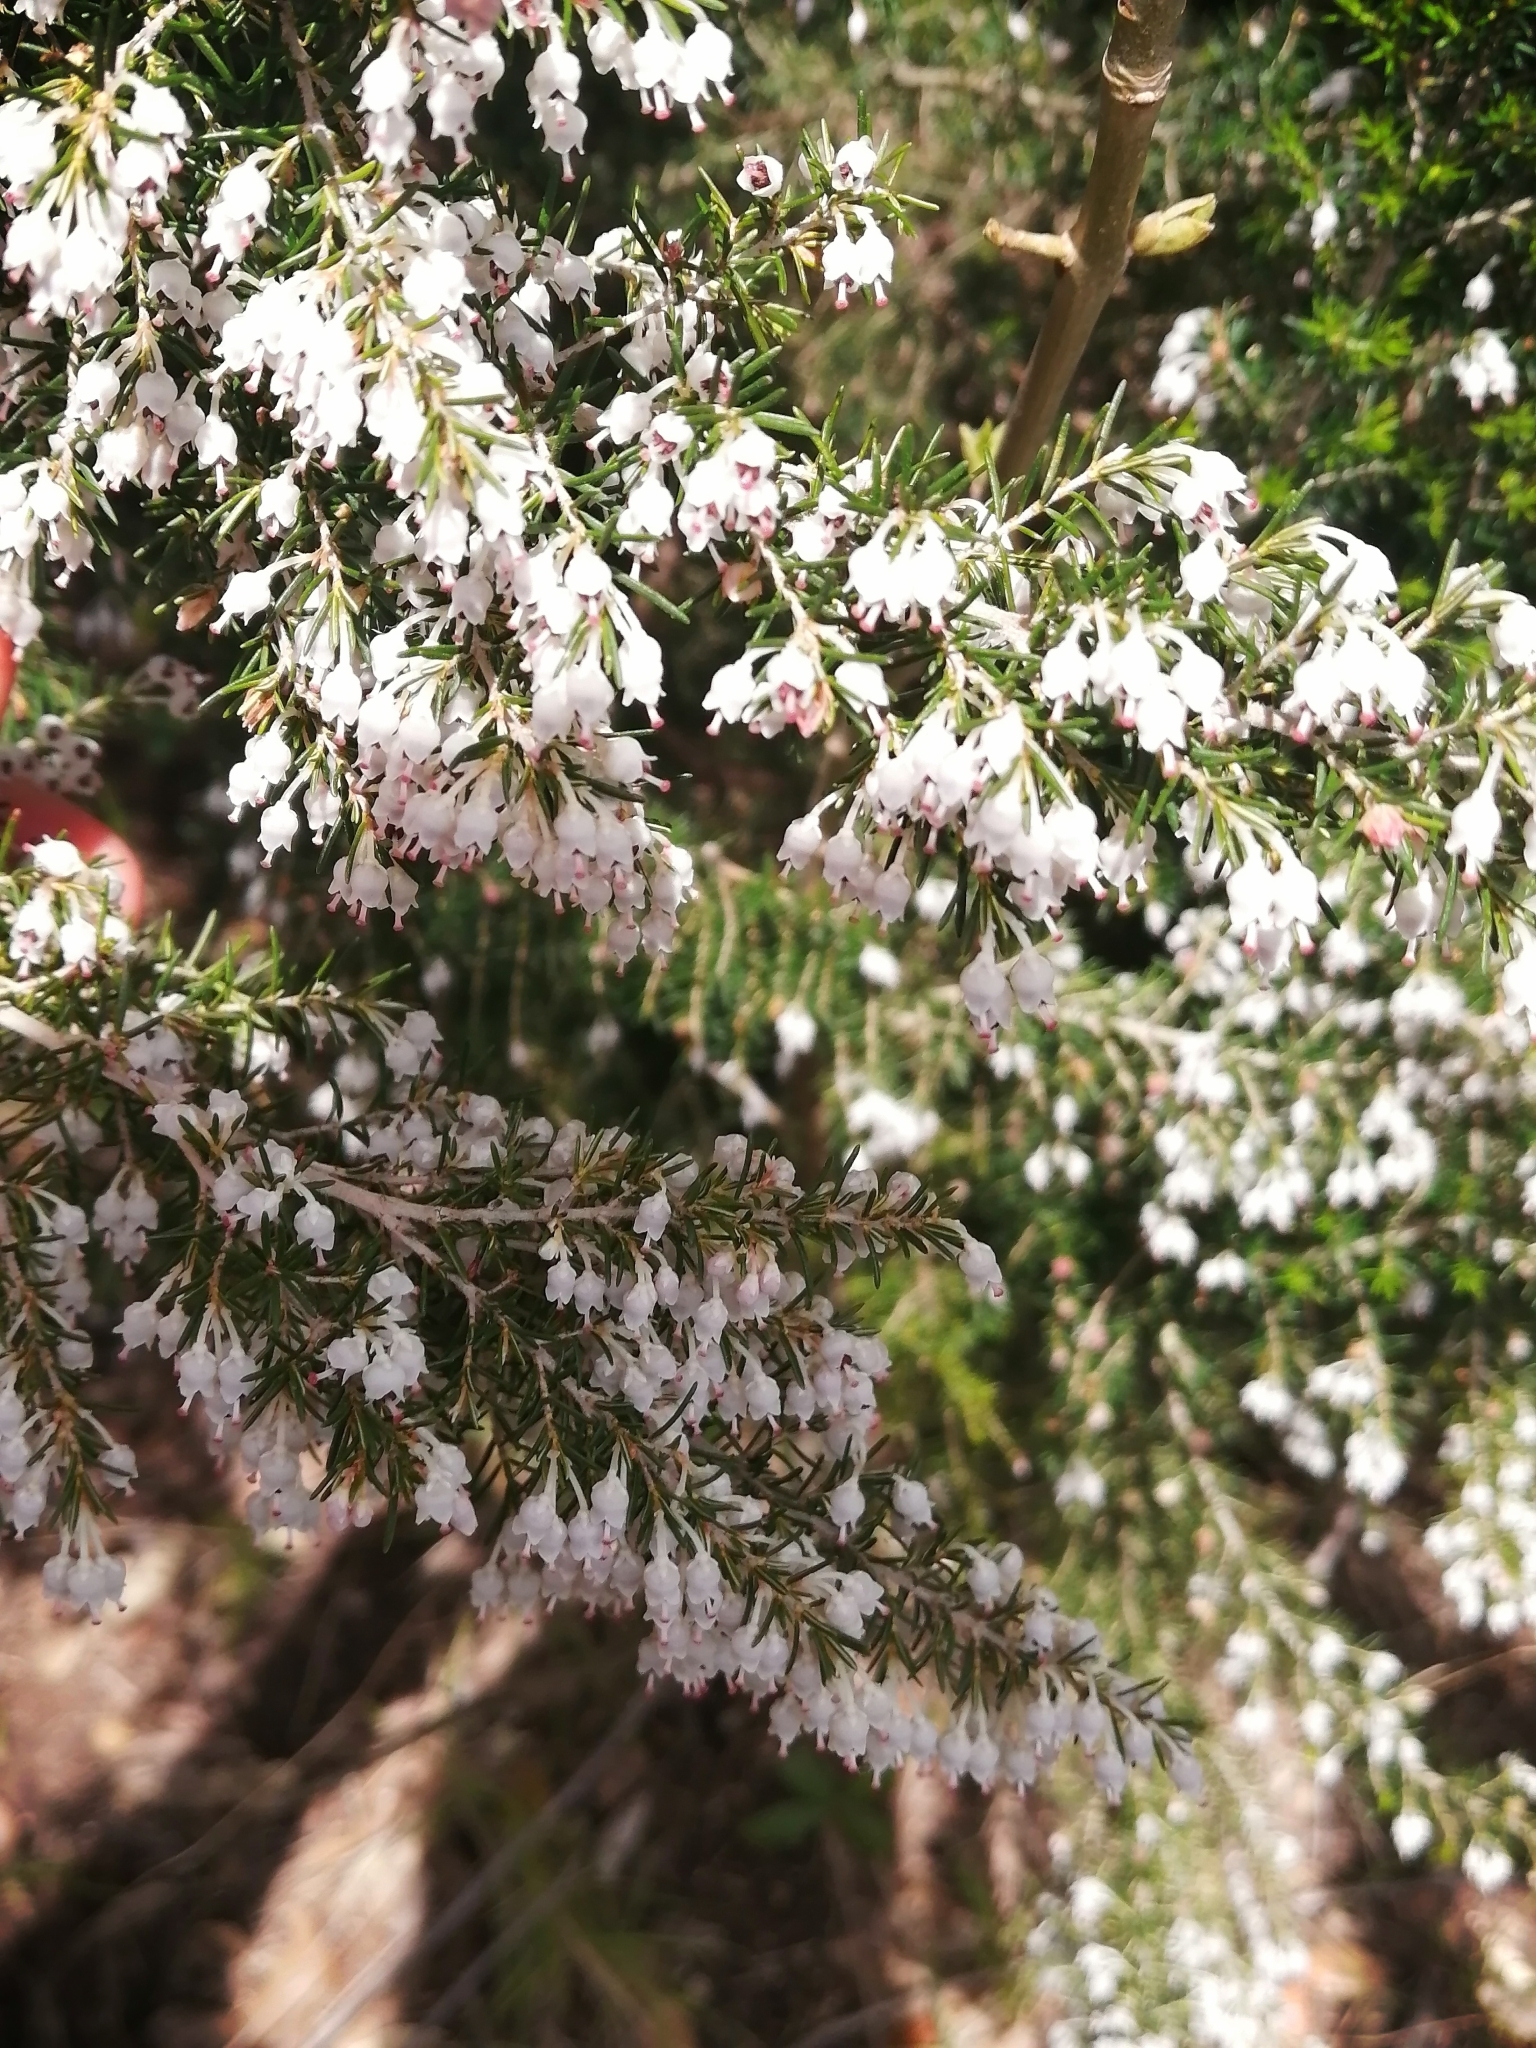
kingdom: Plantae
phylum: Tracheophyta
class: Magnoliopsida
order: Ericales
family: Ericaceae
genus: Erica
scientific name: Erica arborea
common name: Tree heath
